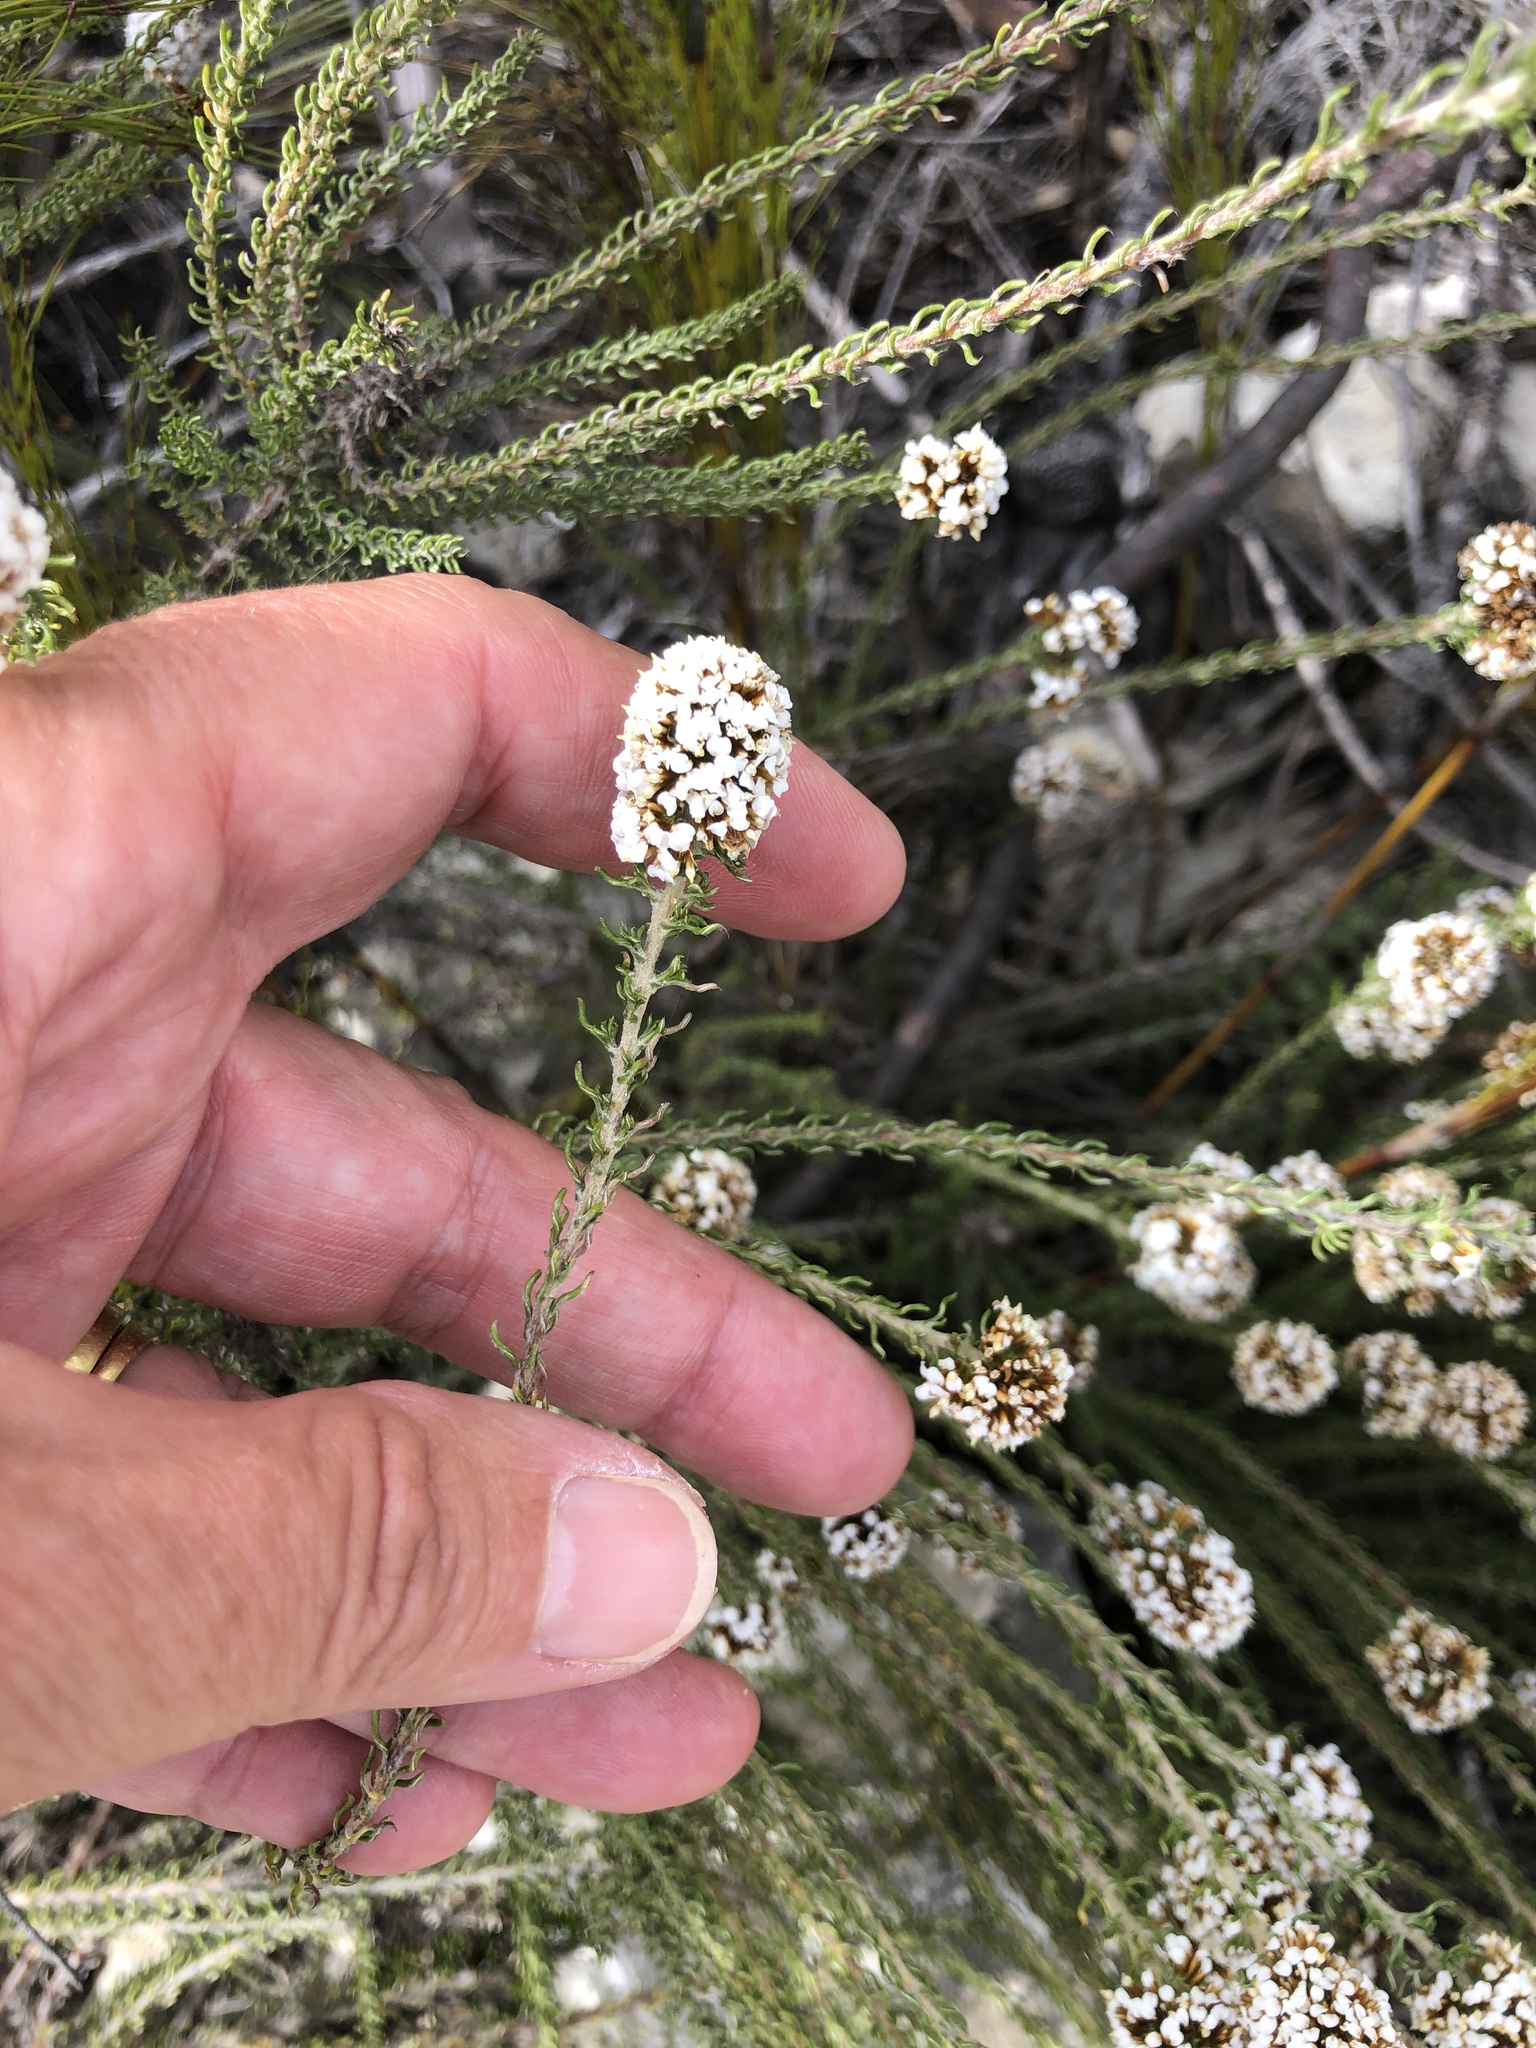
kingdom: Plantae
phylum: Tracheophyta
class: Magnoliopsida
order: Asterales
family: Asteraceae
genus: Disparago
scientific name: Disparago anomala
